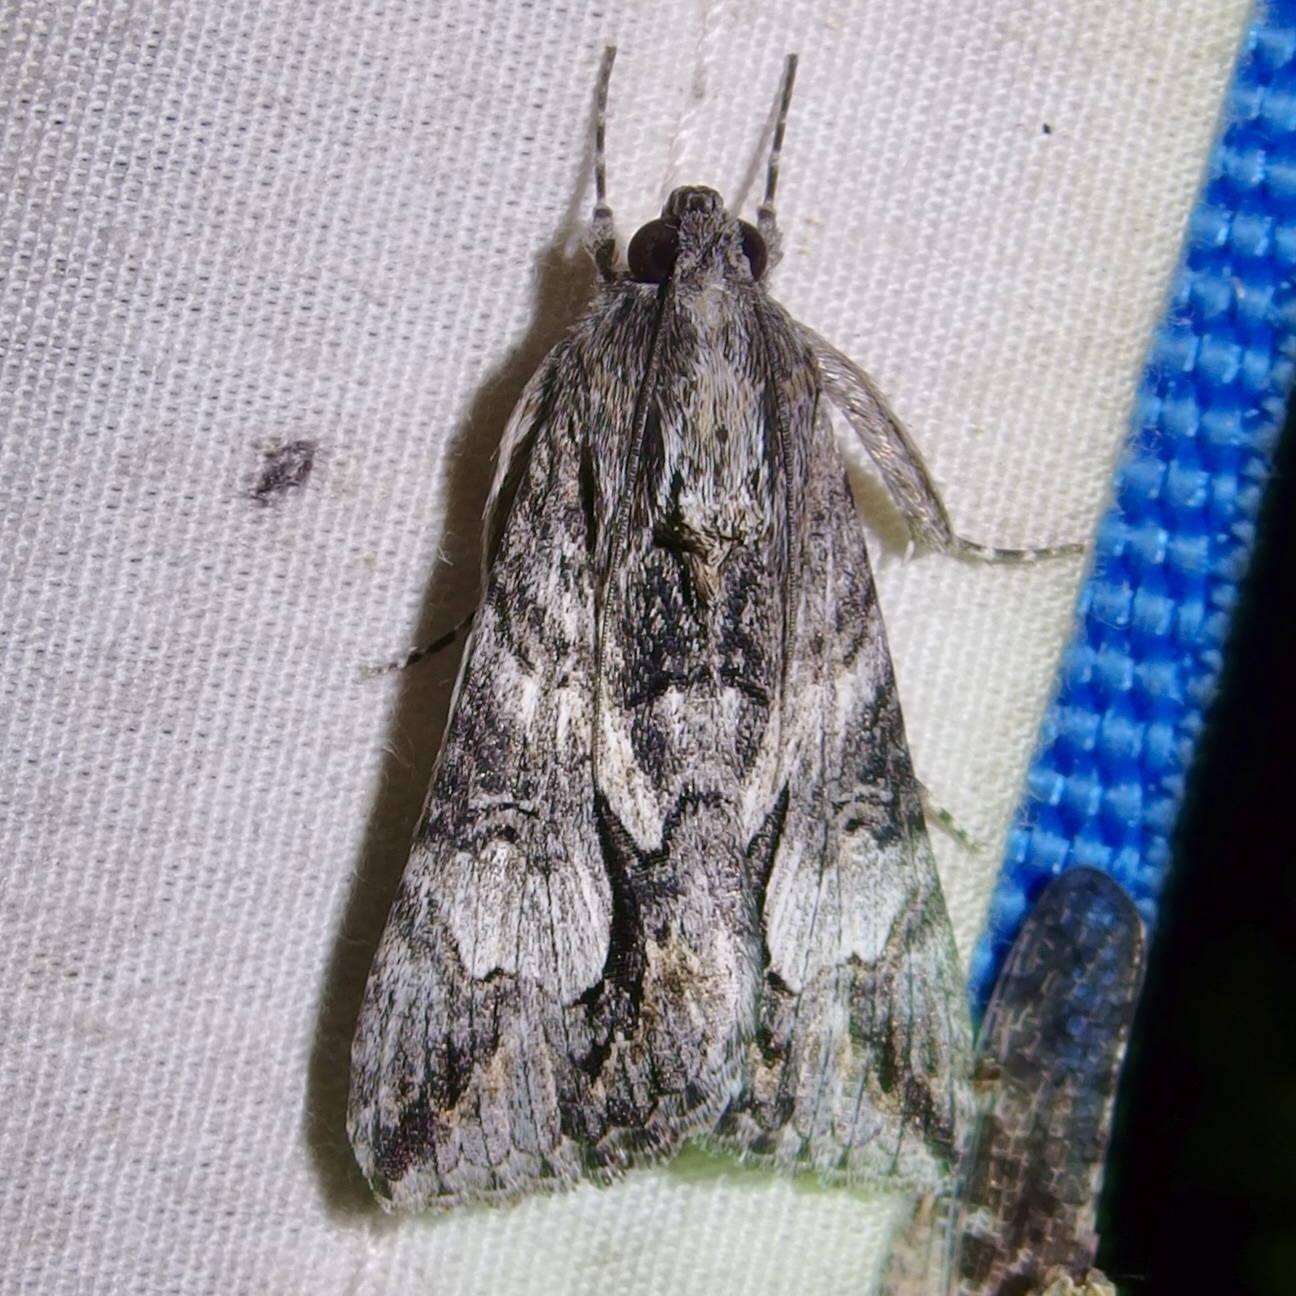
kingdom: Animalia
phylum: Arthropoda
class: Insecta
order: Lepidoptera
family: Erebidae
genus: Melipotis
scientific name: Melipotis jucunda
